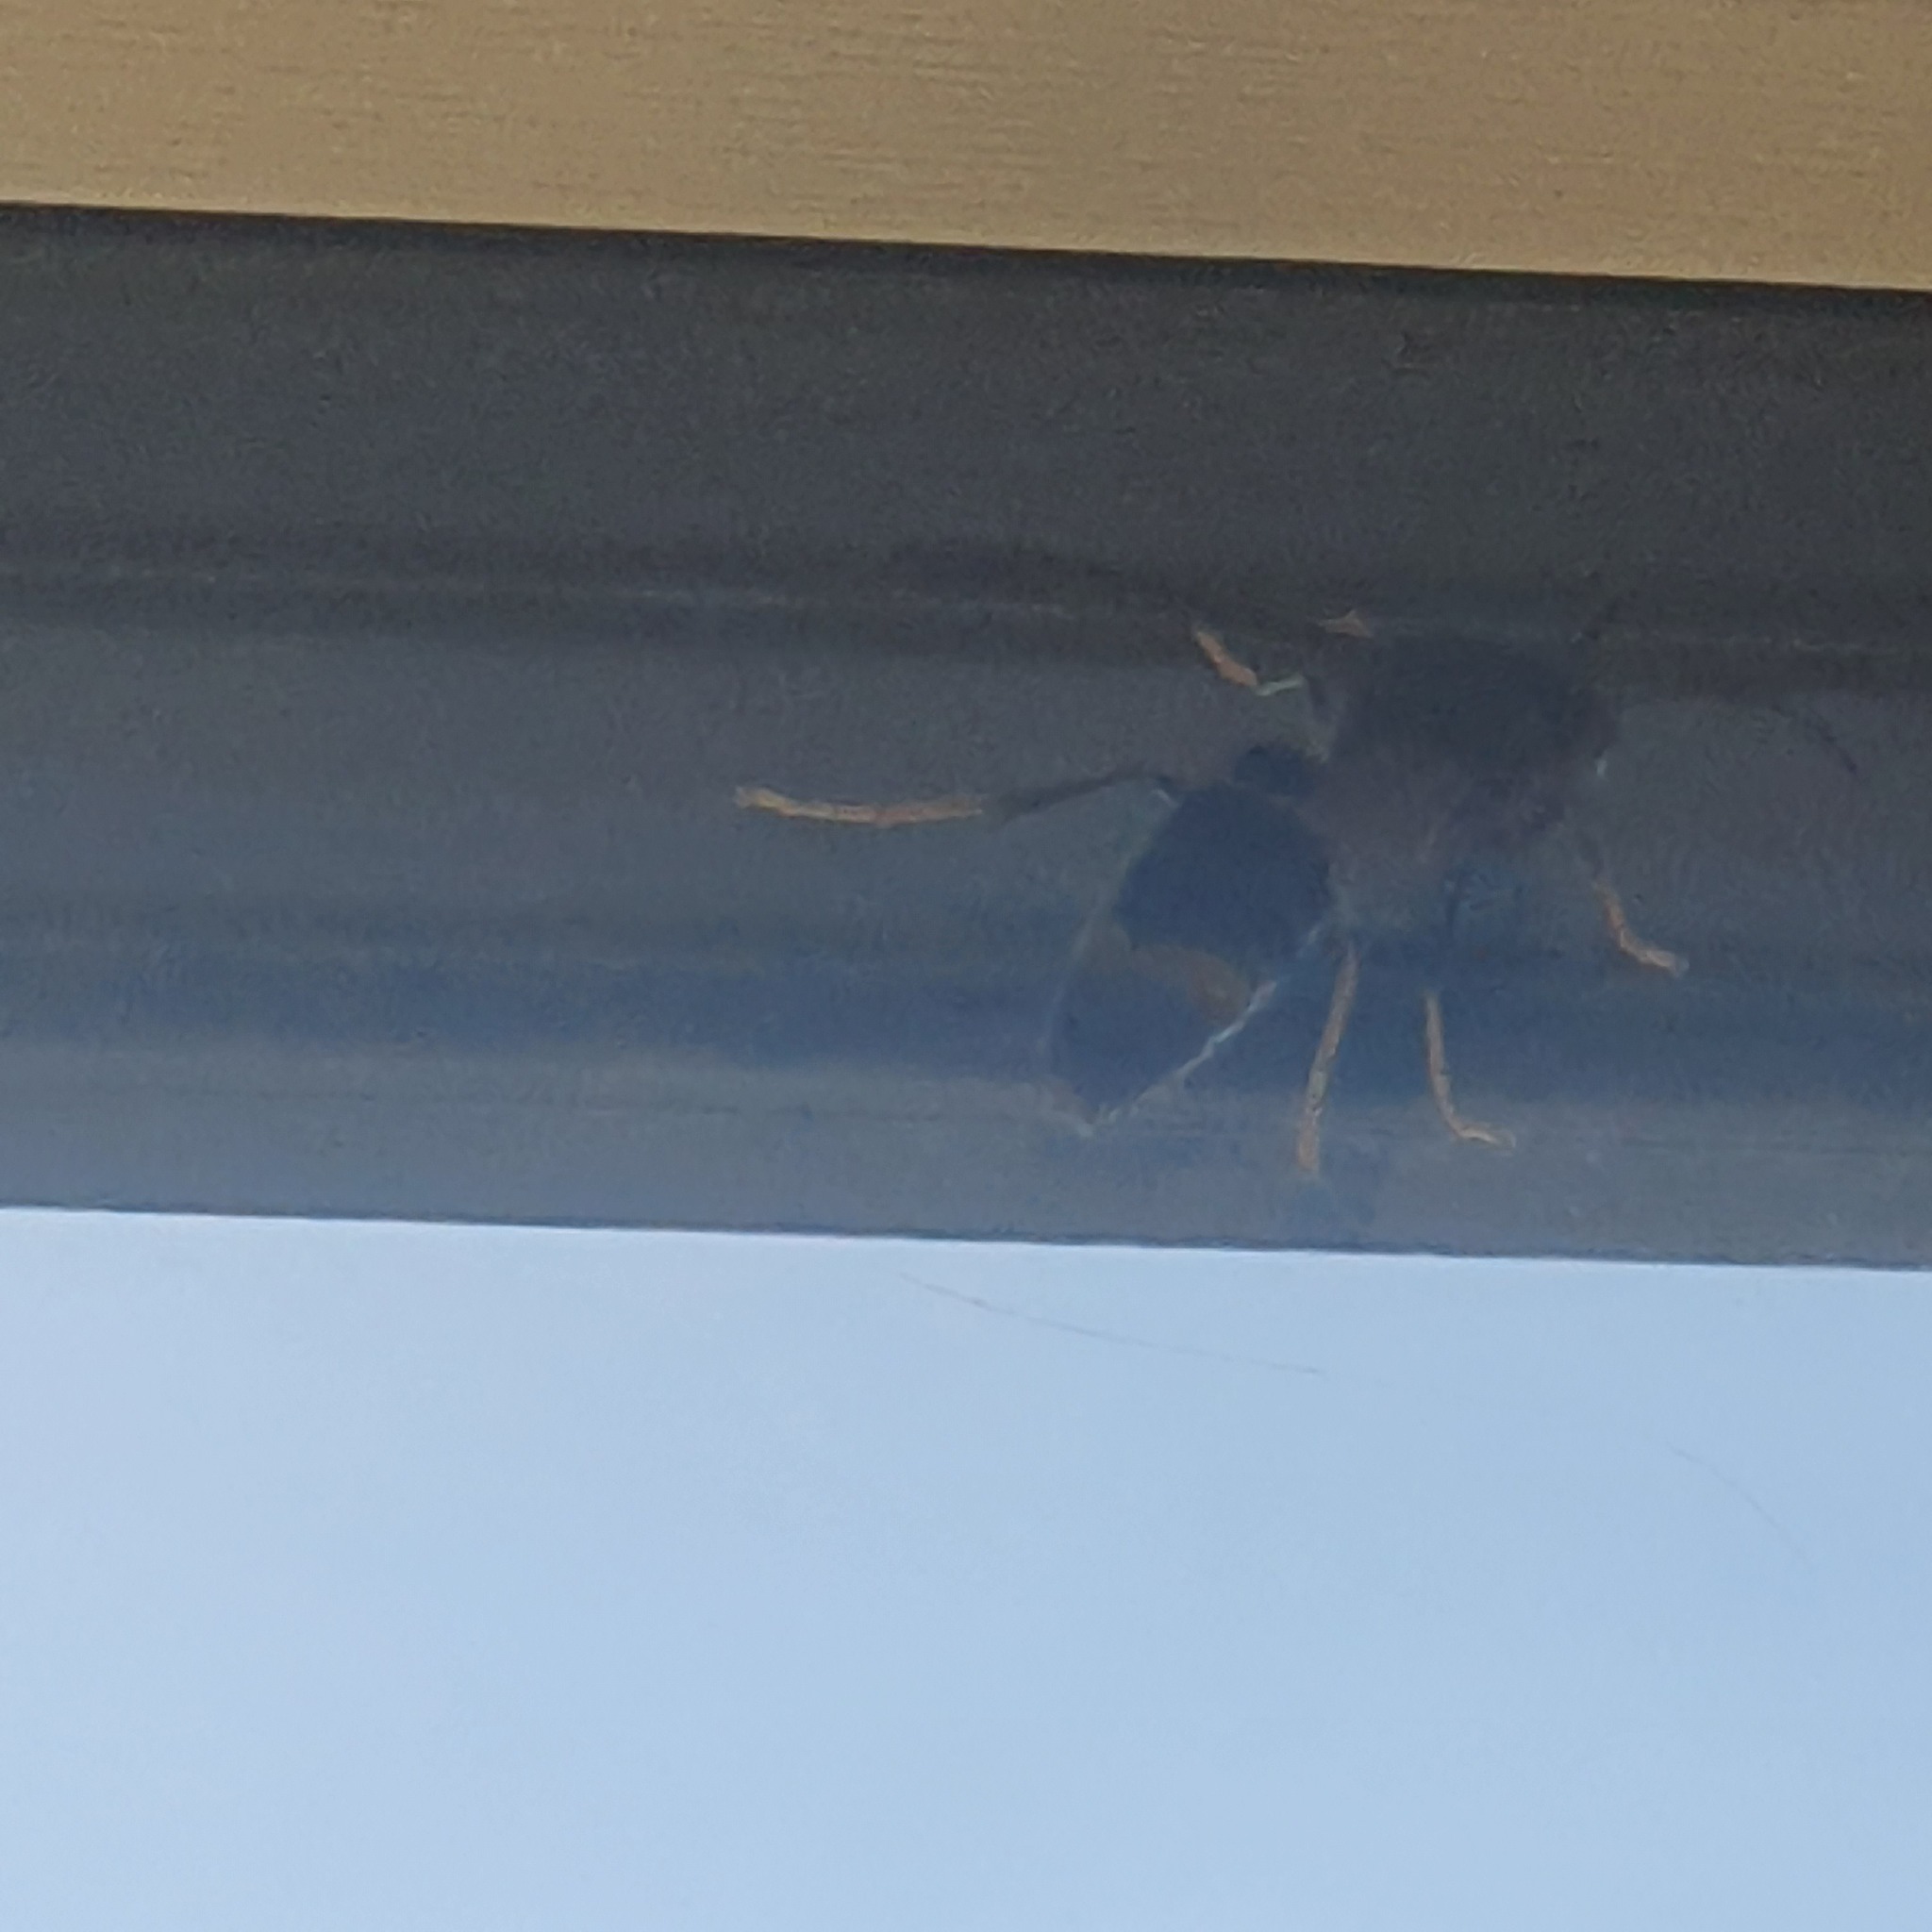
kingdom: Animalia
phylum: Arthropoda
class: Insecta
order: Hymenoptera
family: Vespidae
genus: Vespa
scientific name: Vespa velutina
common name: Asian hornet
